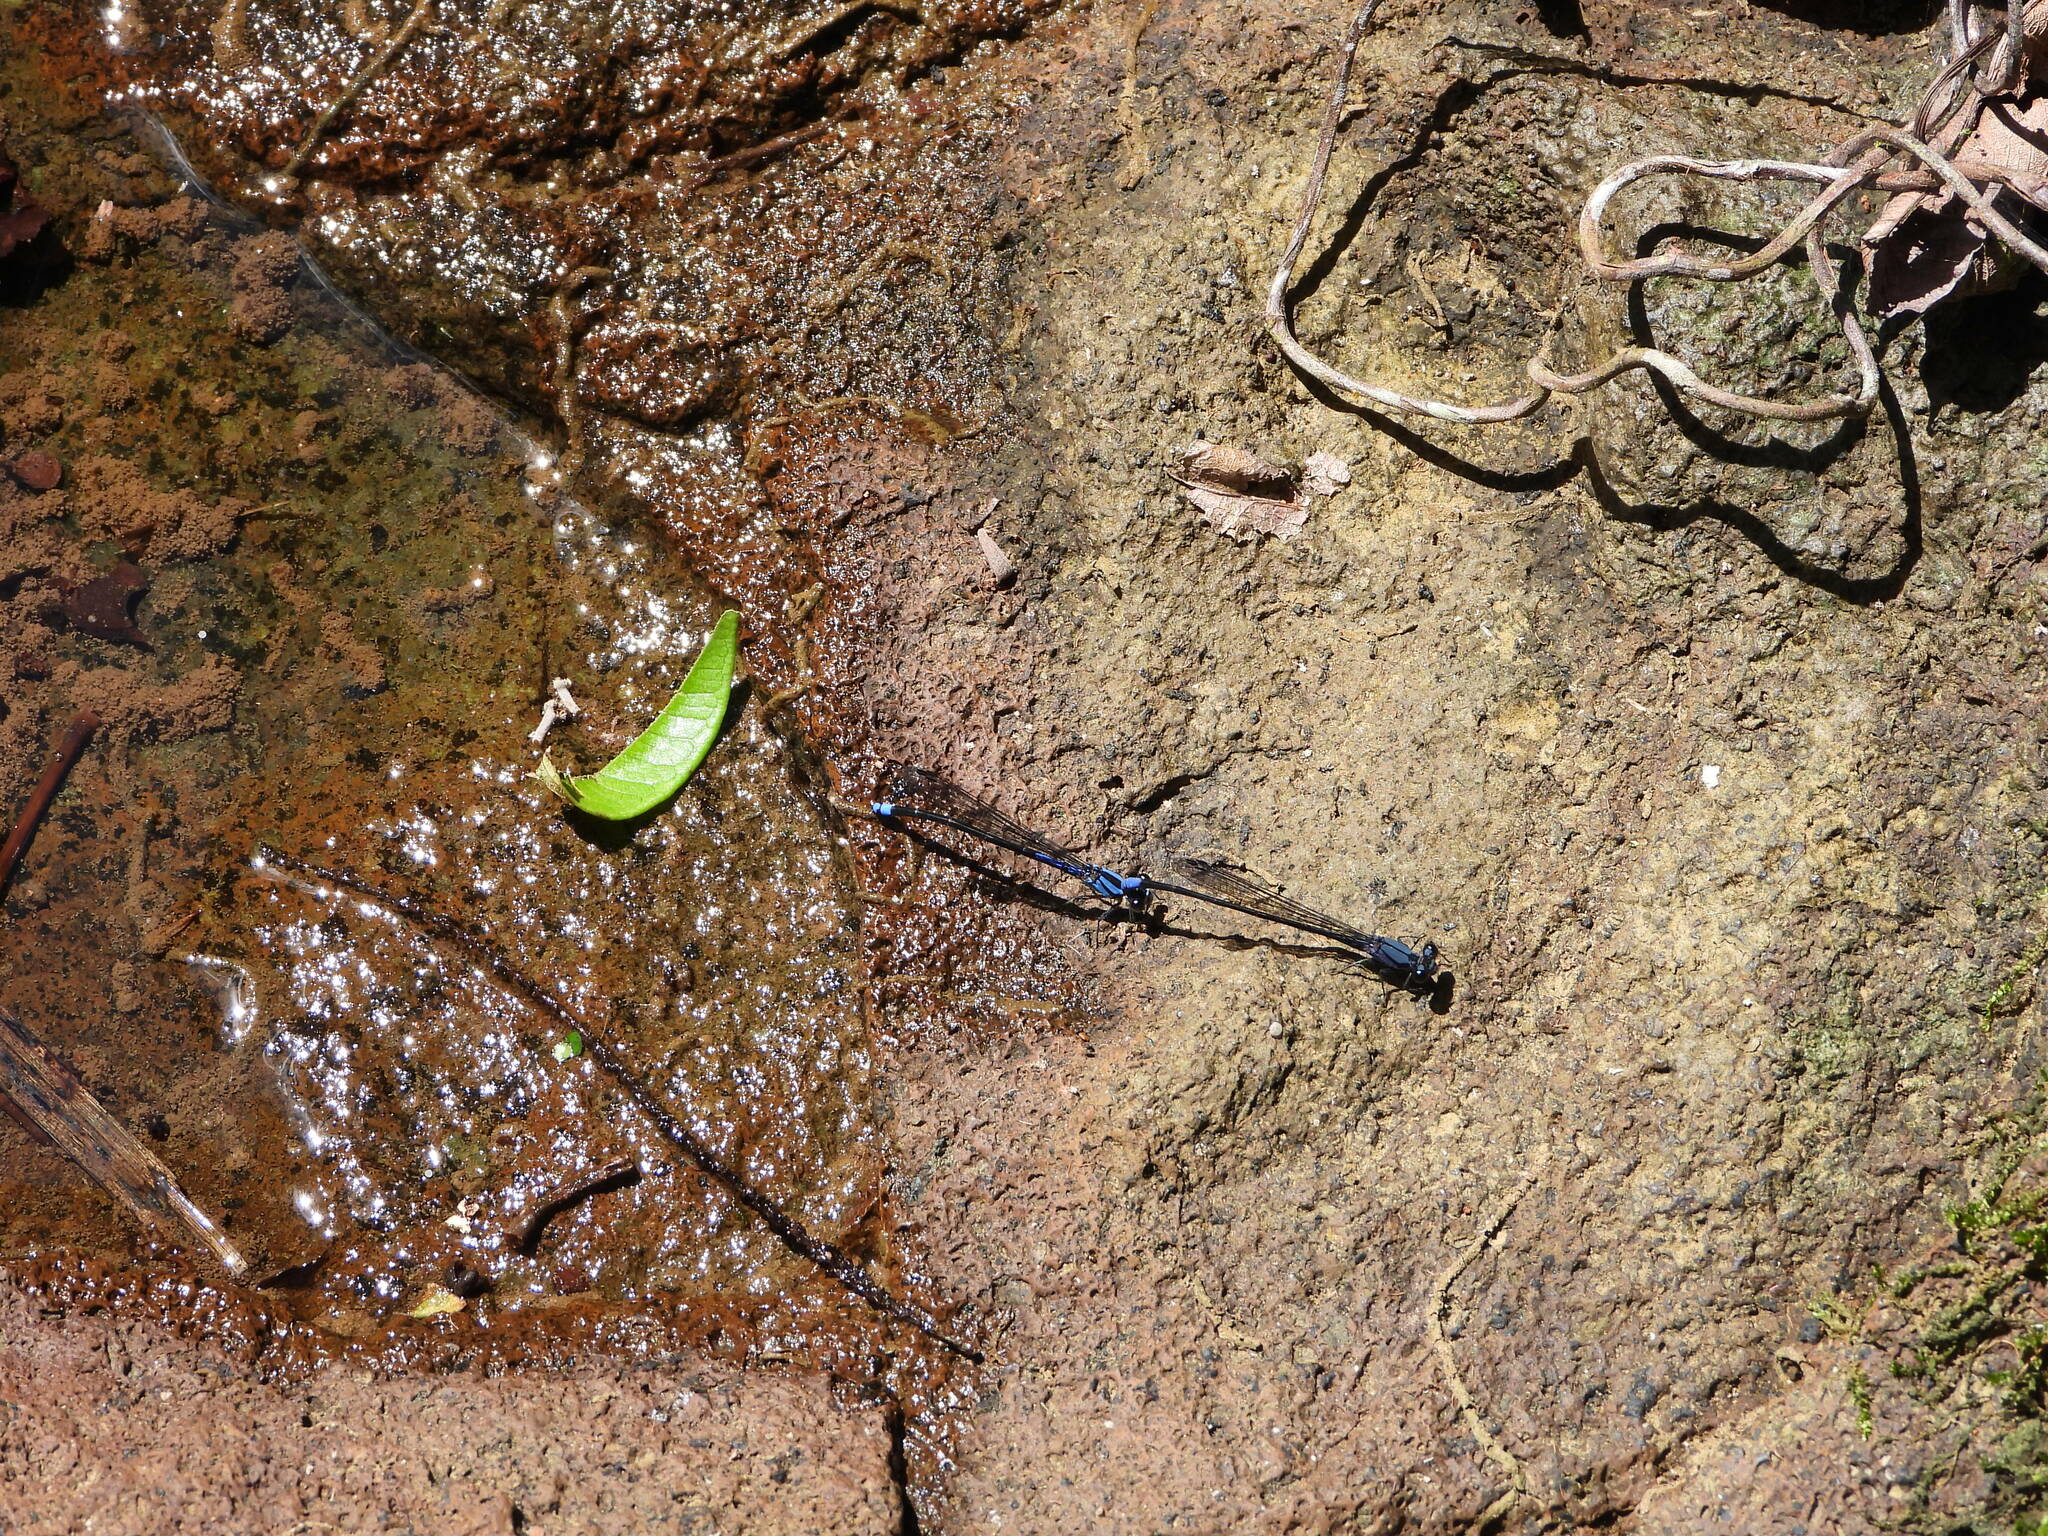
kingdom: Animalia
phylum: Arthropoda
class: Insecta
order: Odonata
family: Coenagrionidae
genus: Argia
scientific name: Argia talamanca
